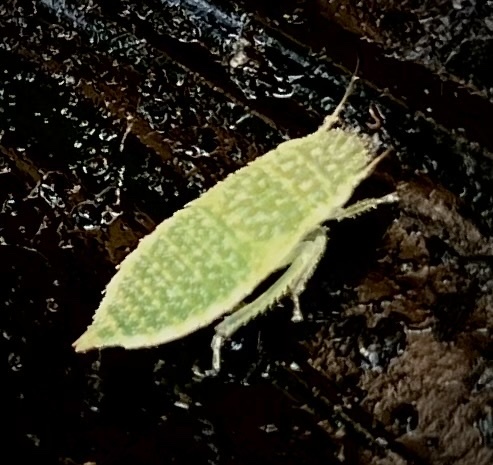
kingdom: Animalia
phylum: Arthropoda
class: Insecta
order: Hemiptera
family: Cicadellidae
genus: Rugosana
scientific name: Rugosana querci
